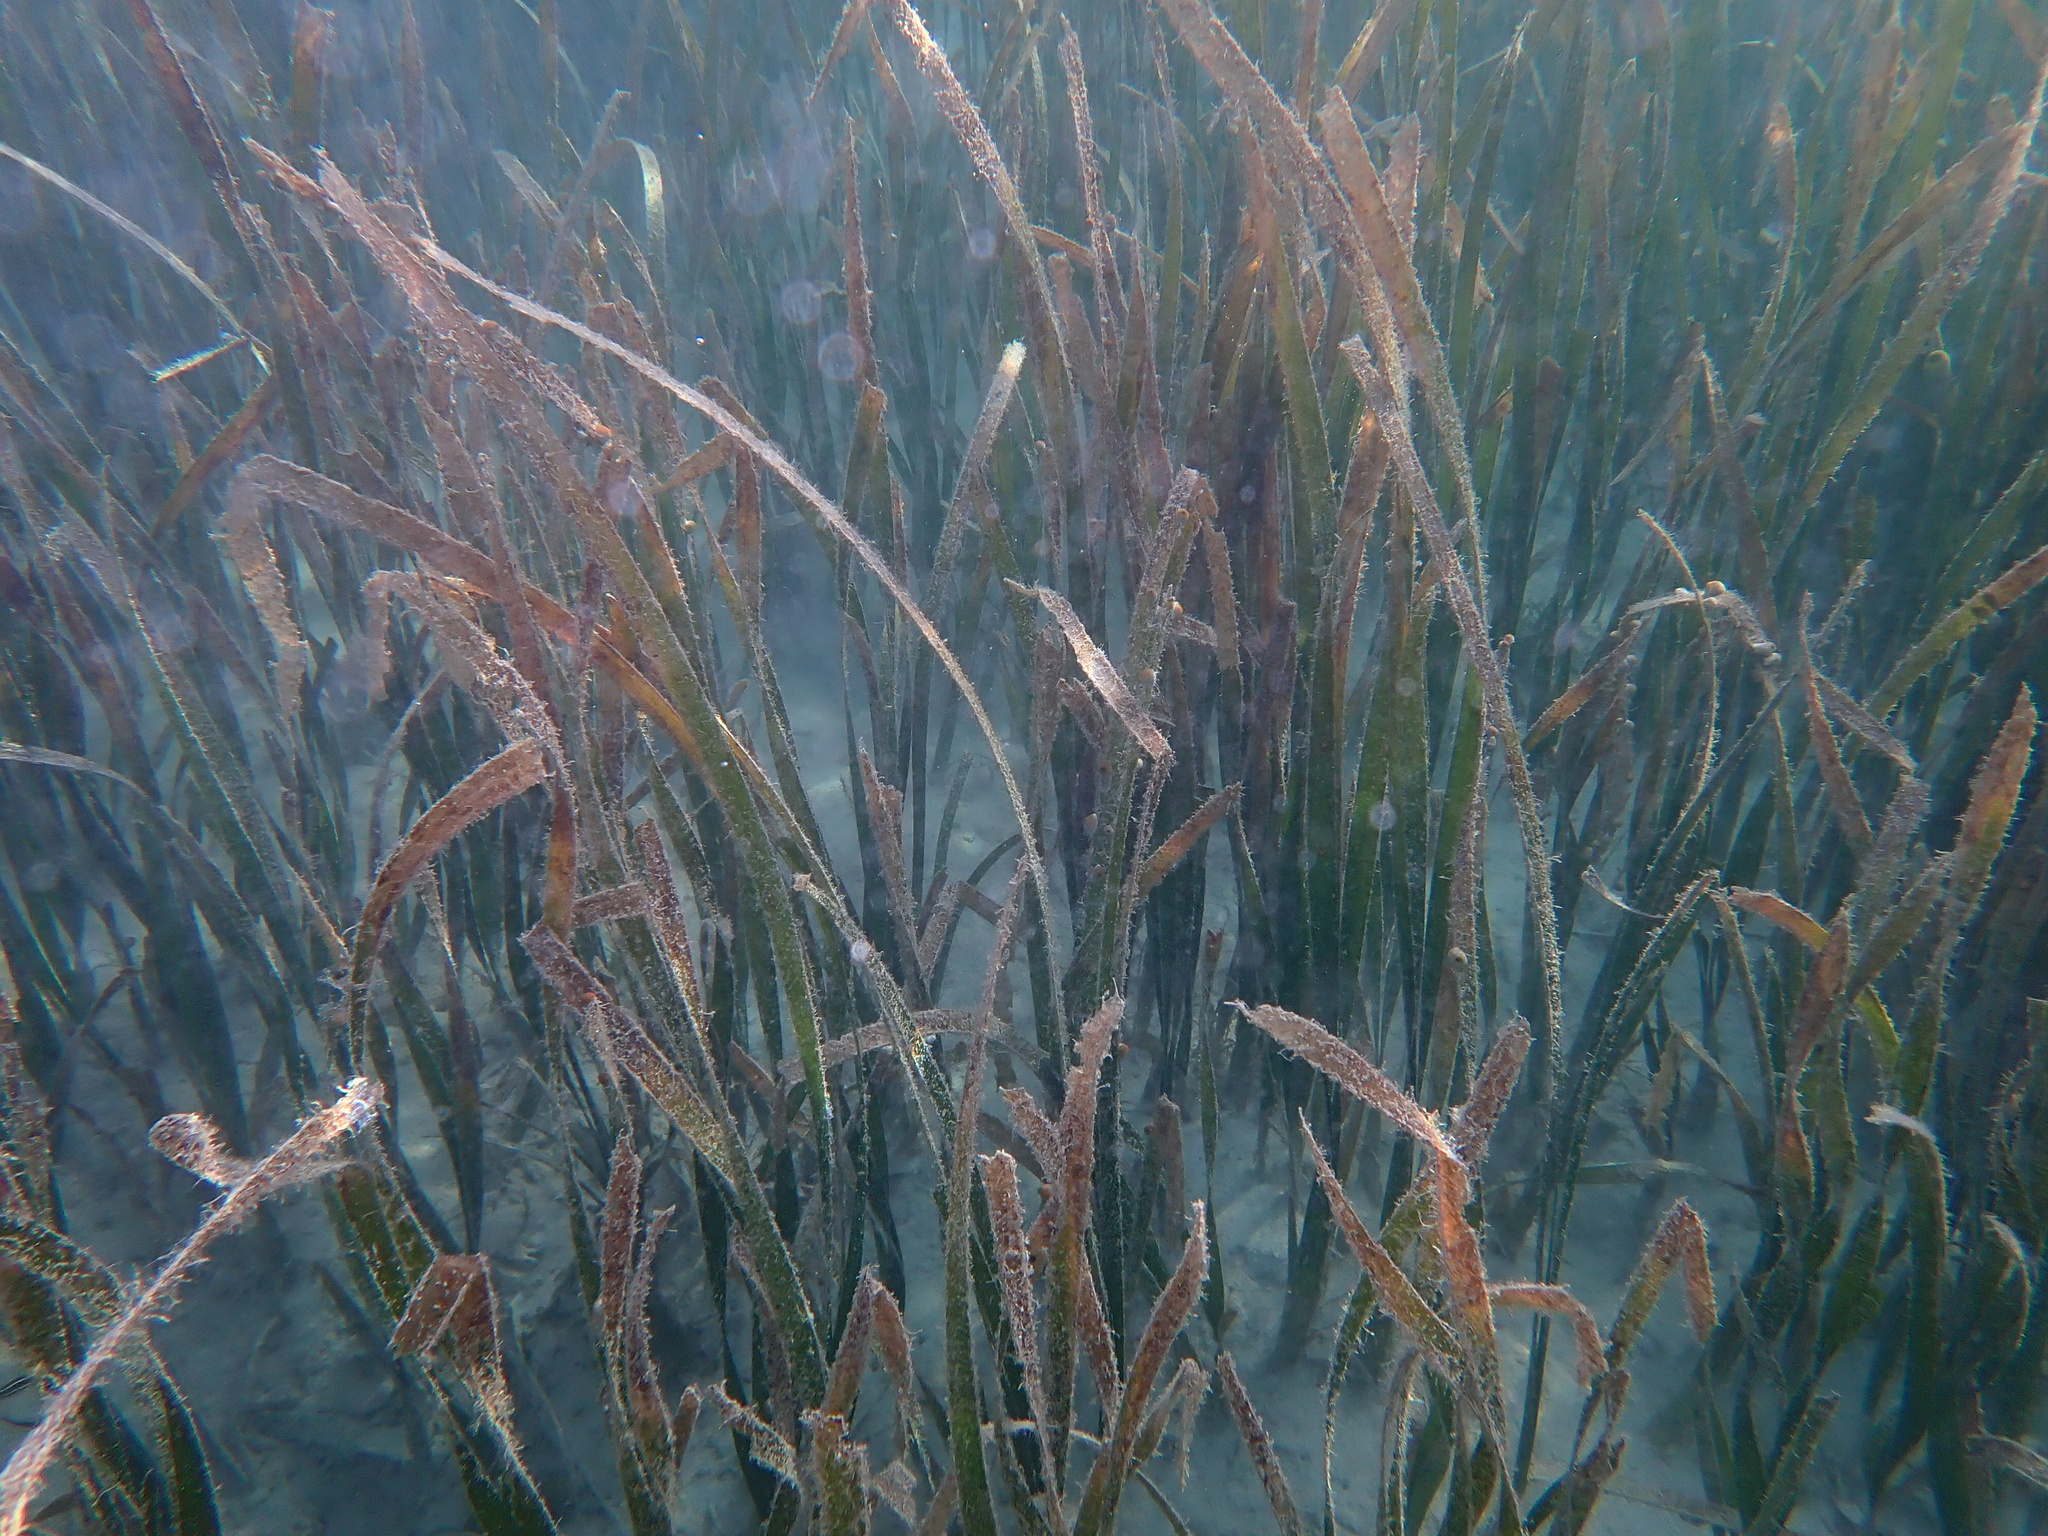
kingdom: Plantae
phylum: Tracheophyta
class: Liliopsida
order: Alismatales
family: Hydrocharitaceae
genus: Enhalus
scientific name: Enhalus acoroides
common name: Species code: ea
